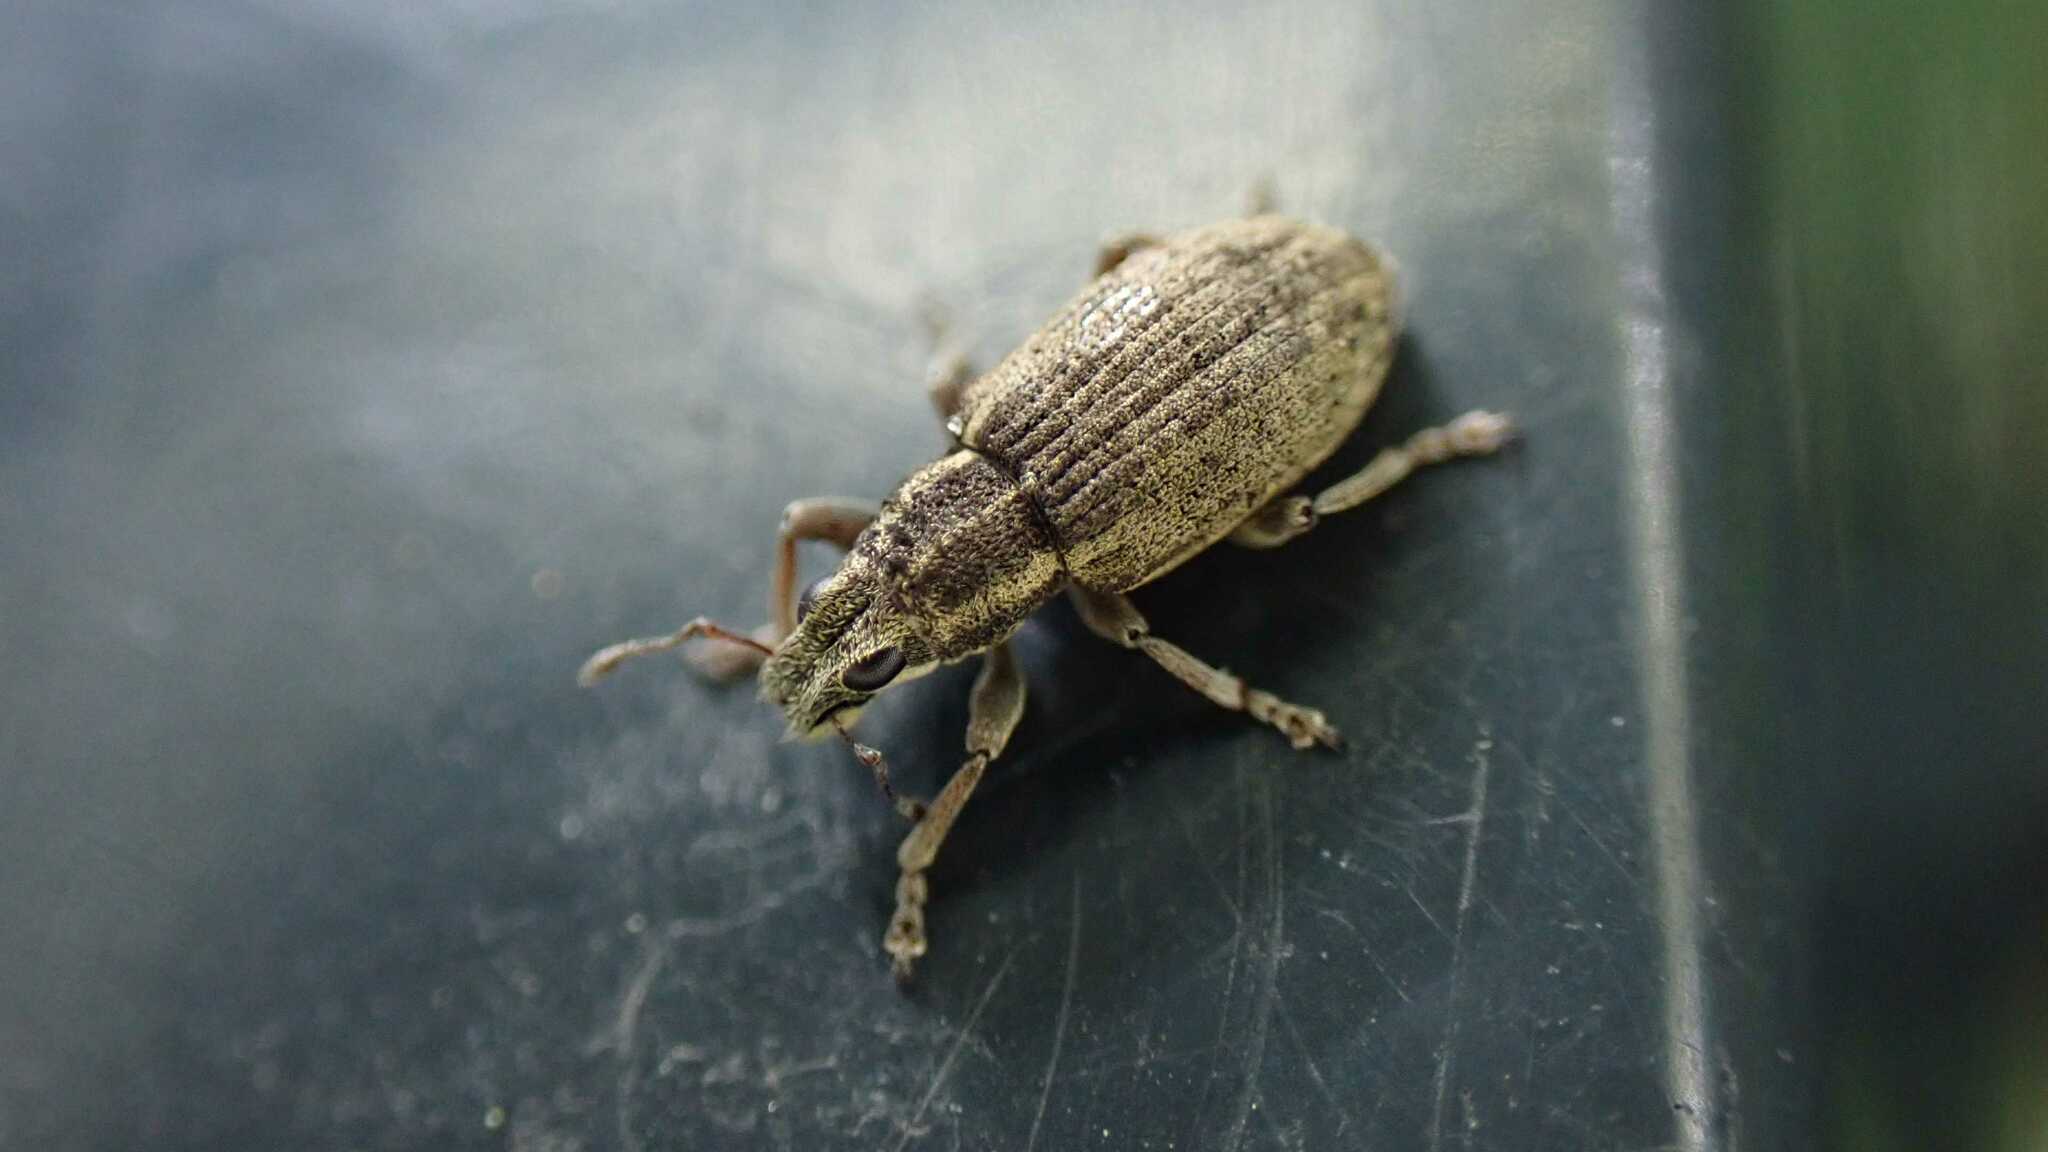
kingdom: Animalia
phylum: Arthropoda
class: Insecta
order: Coleoptera
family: Curculionidae
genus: Sitona
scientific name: Sitona humeralis
